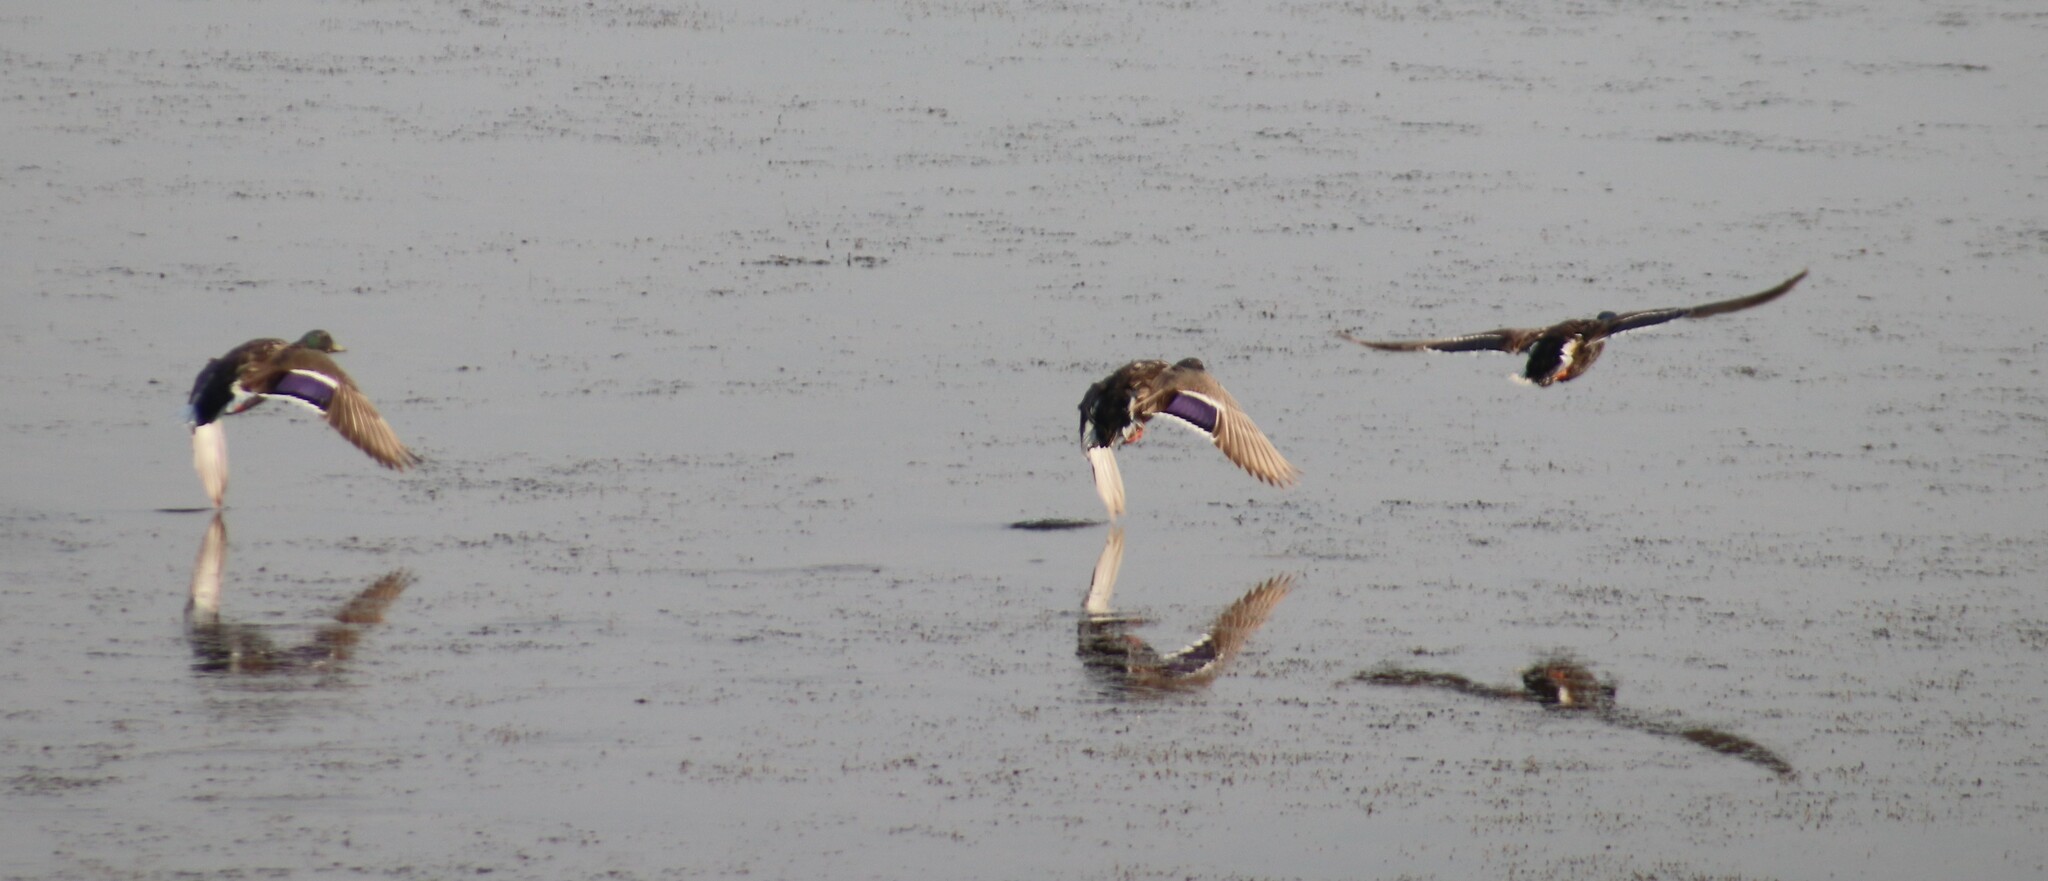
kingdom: Animalia
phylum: Chordata
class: Aves
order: Anseriformes
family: Anatidae
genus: Anas
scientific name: Anas platyrhynchos
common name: Mallard
